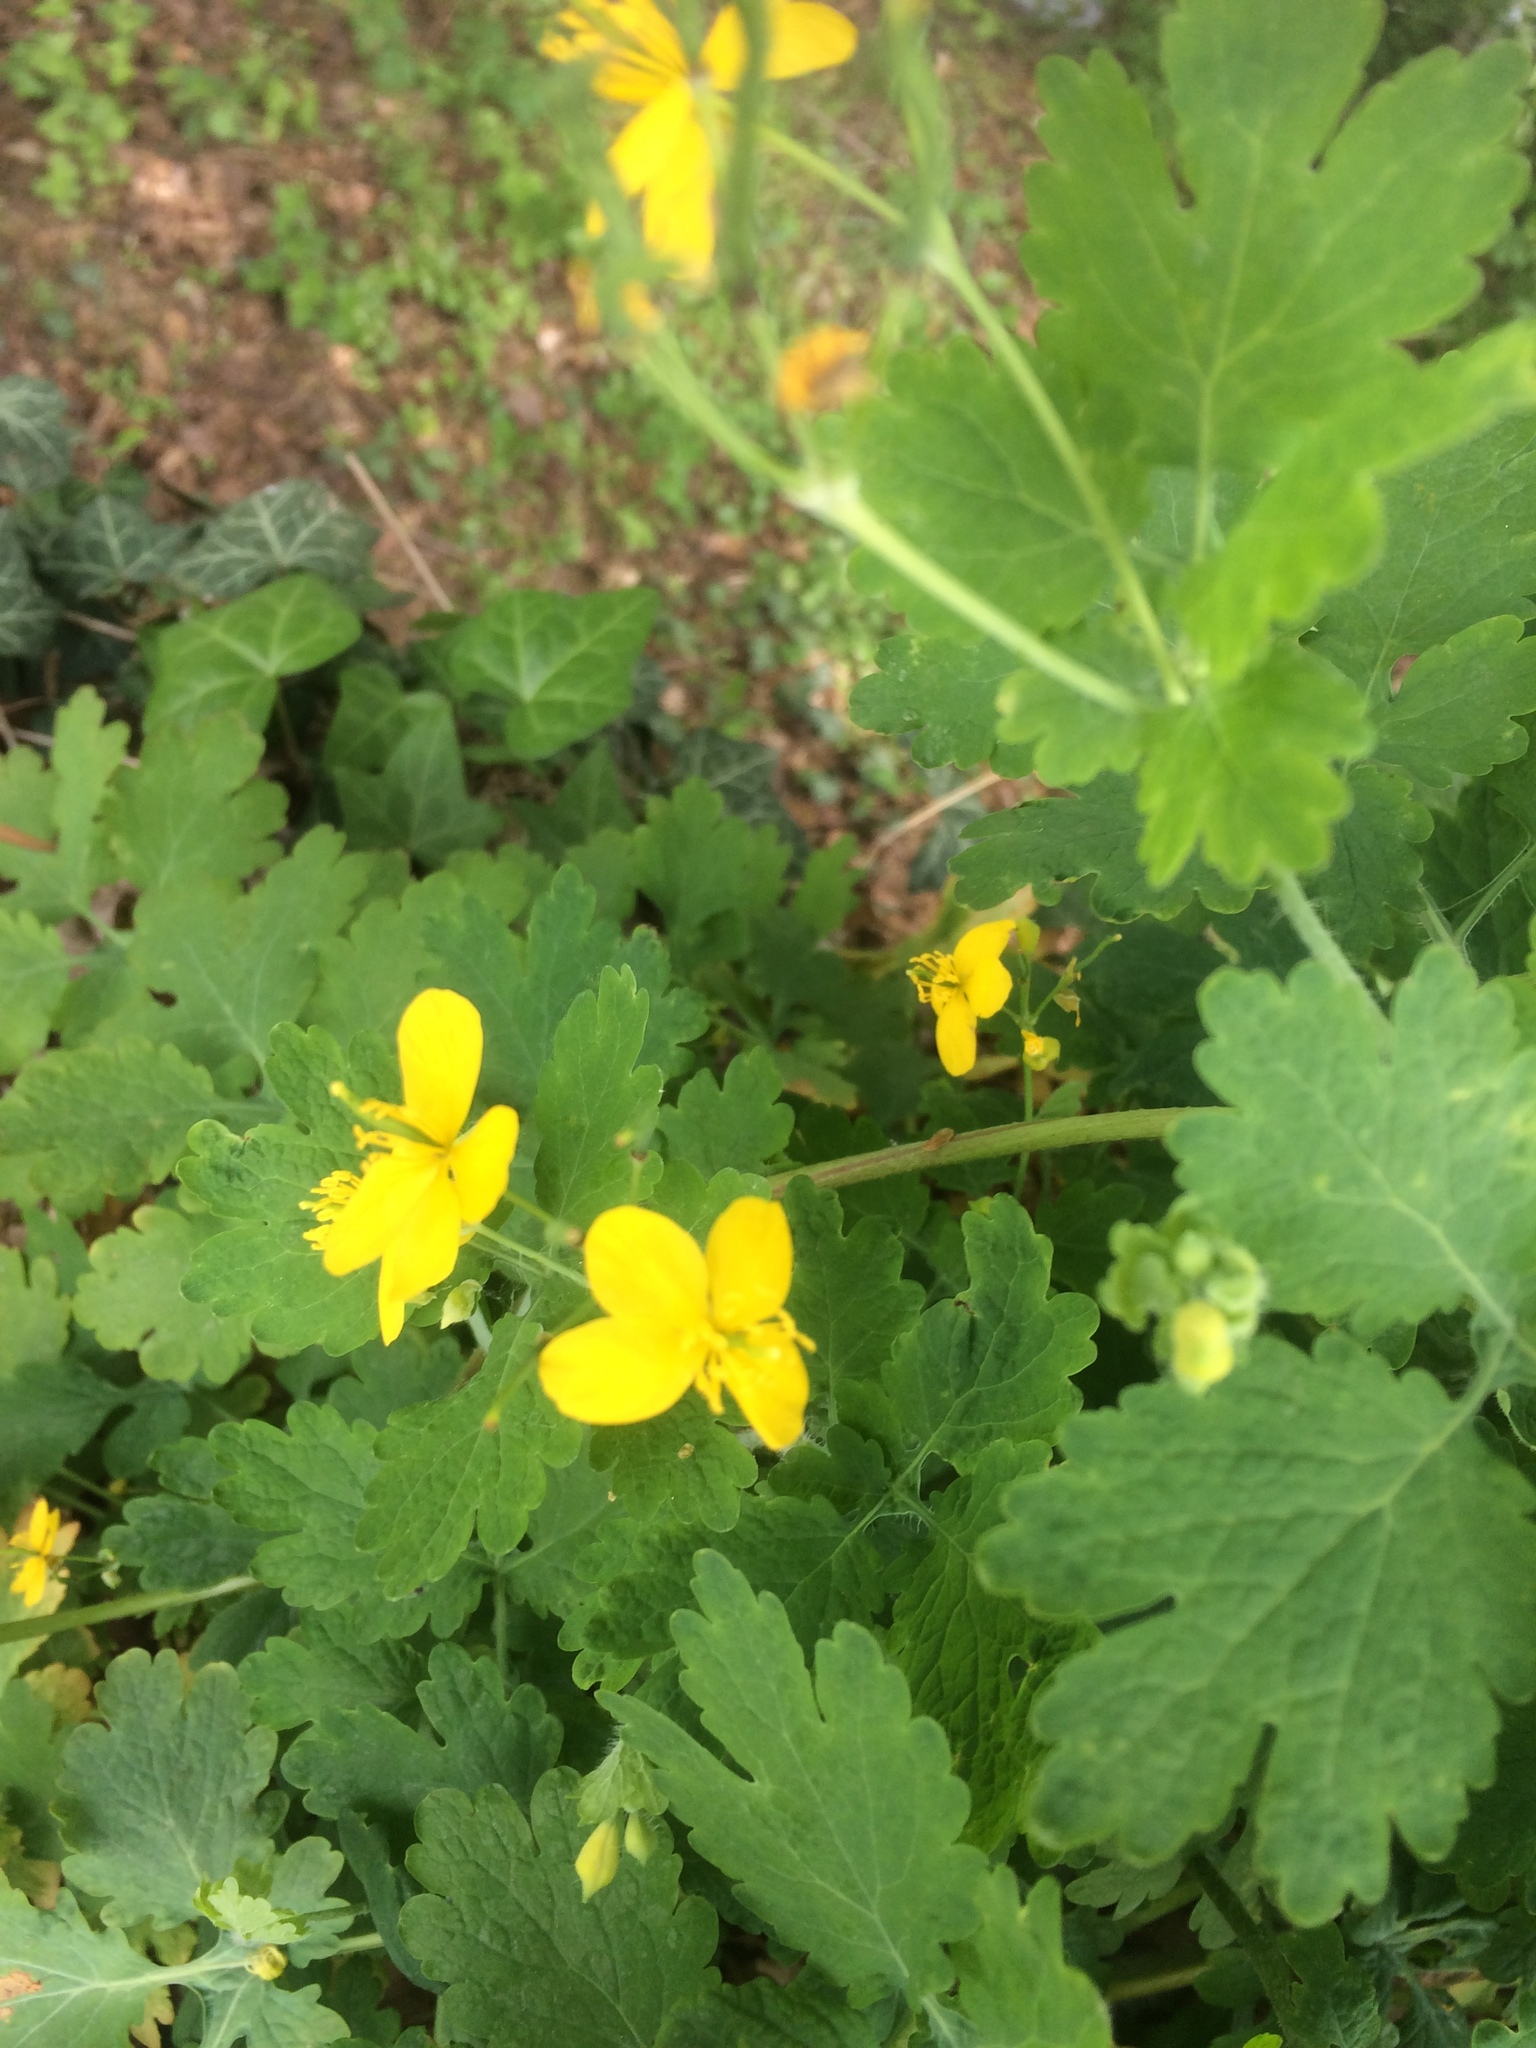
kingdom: Plantae
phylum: Tracheophyta
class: Magnoliopsida
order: Ranunculales
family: Papaveraceae
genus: Chelidonium
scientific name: Chelidonium majus
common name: Greater celandine
